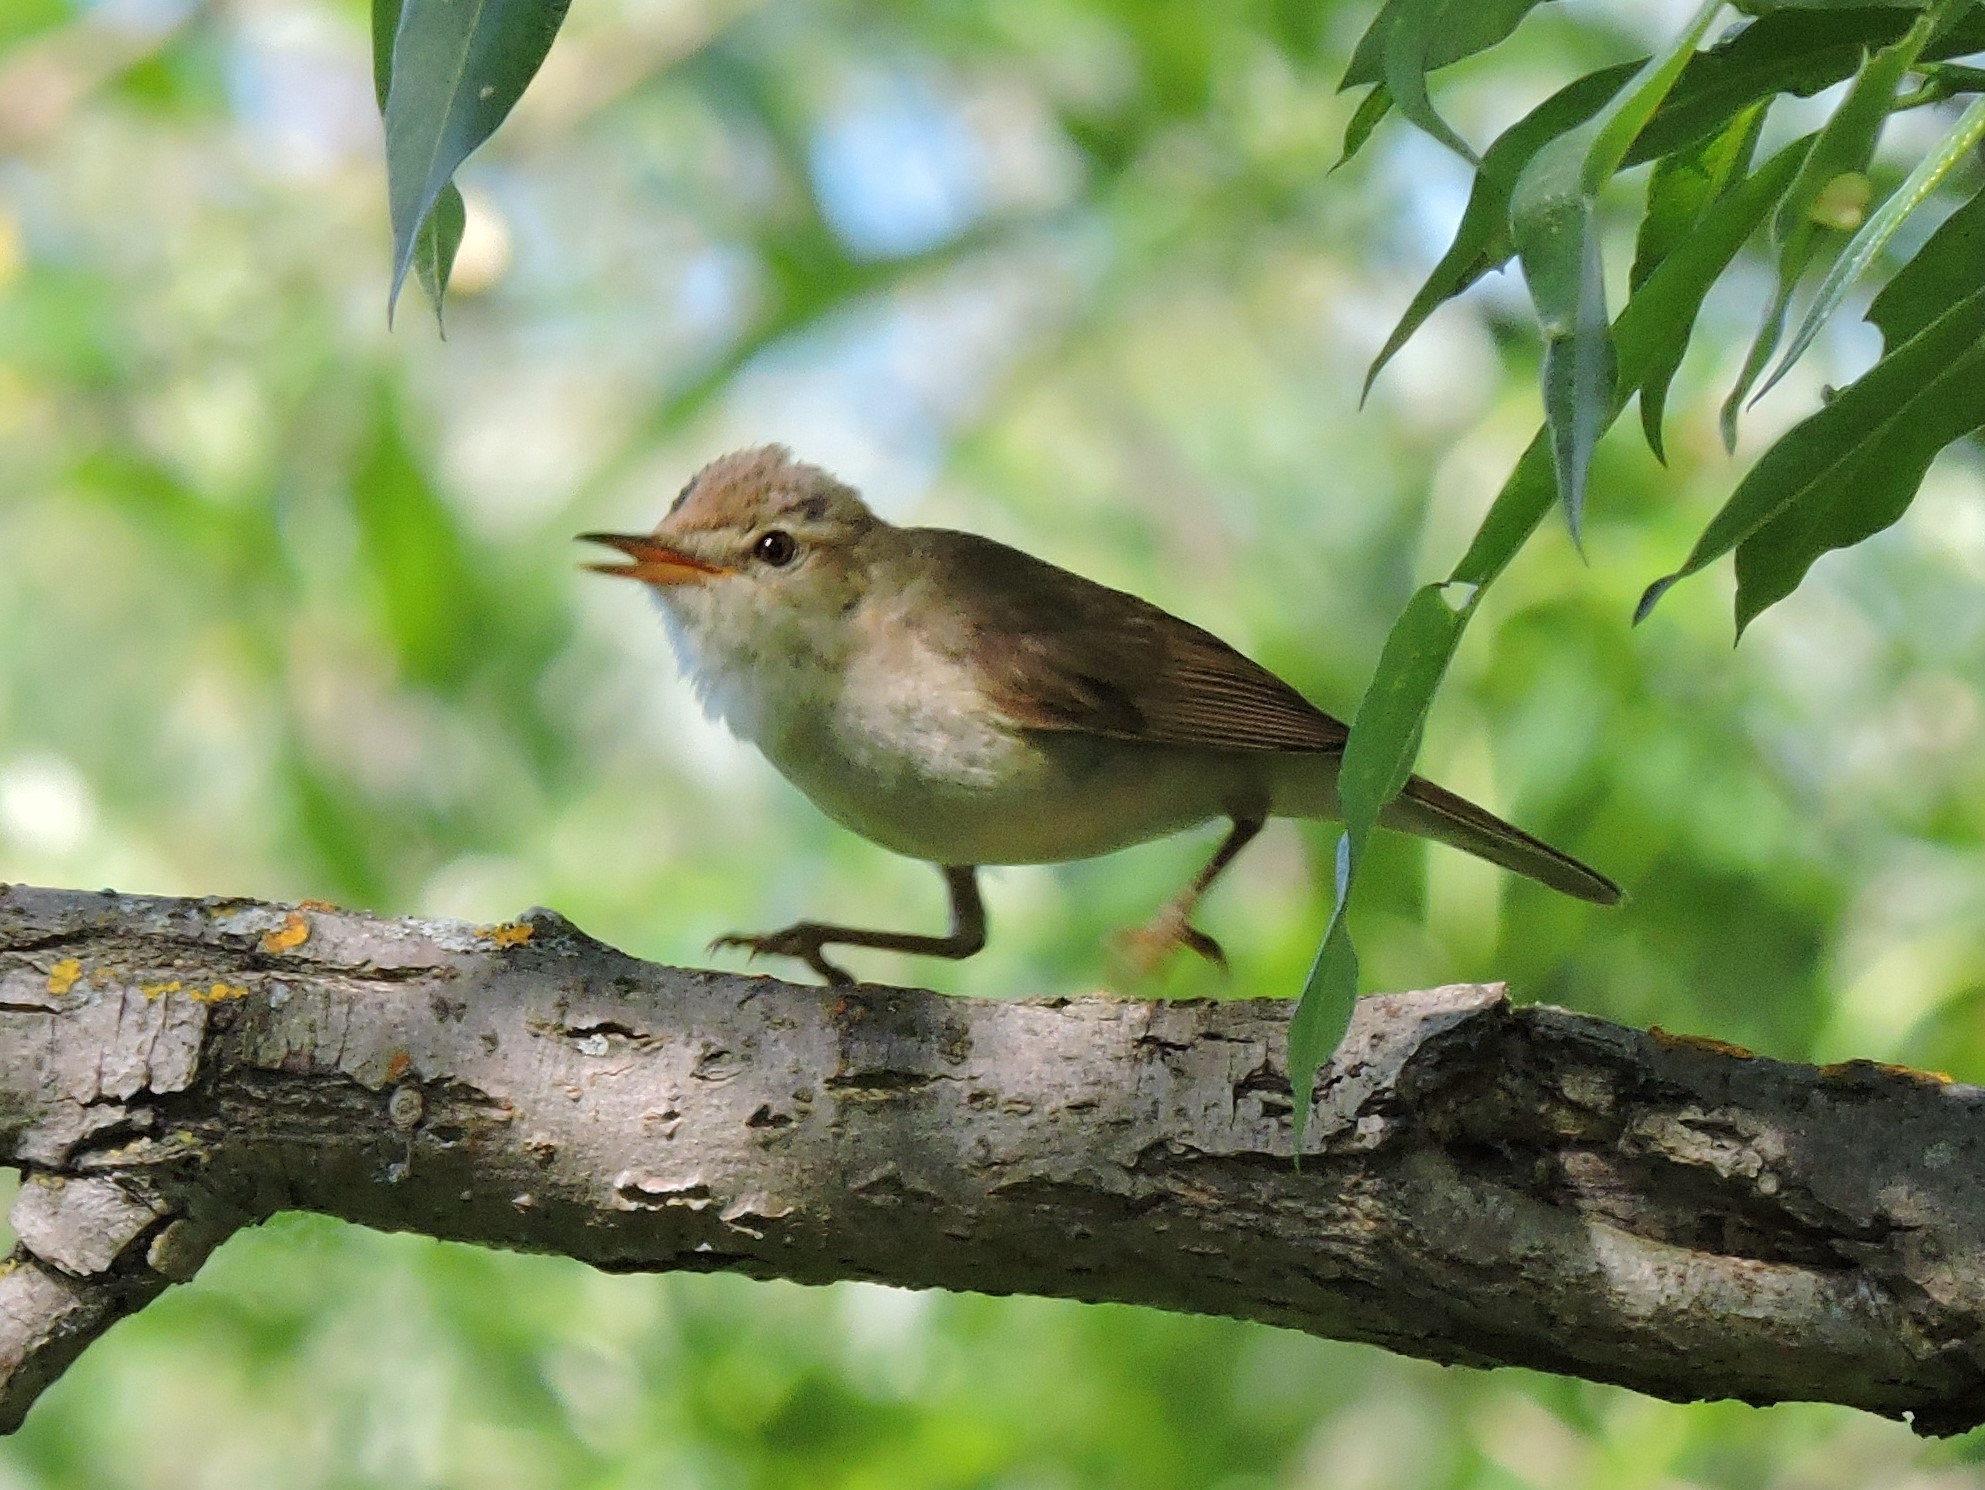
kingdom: Animalia
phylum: Chordata
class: Aves
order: Passeriformes
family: Acrocephalidae
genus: Acrocephalus
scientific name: Acrocephalus dumetorum
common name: Blyth's reed warbler
